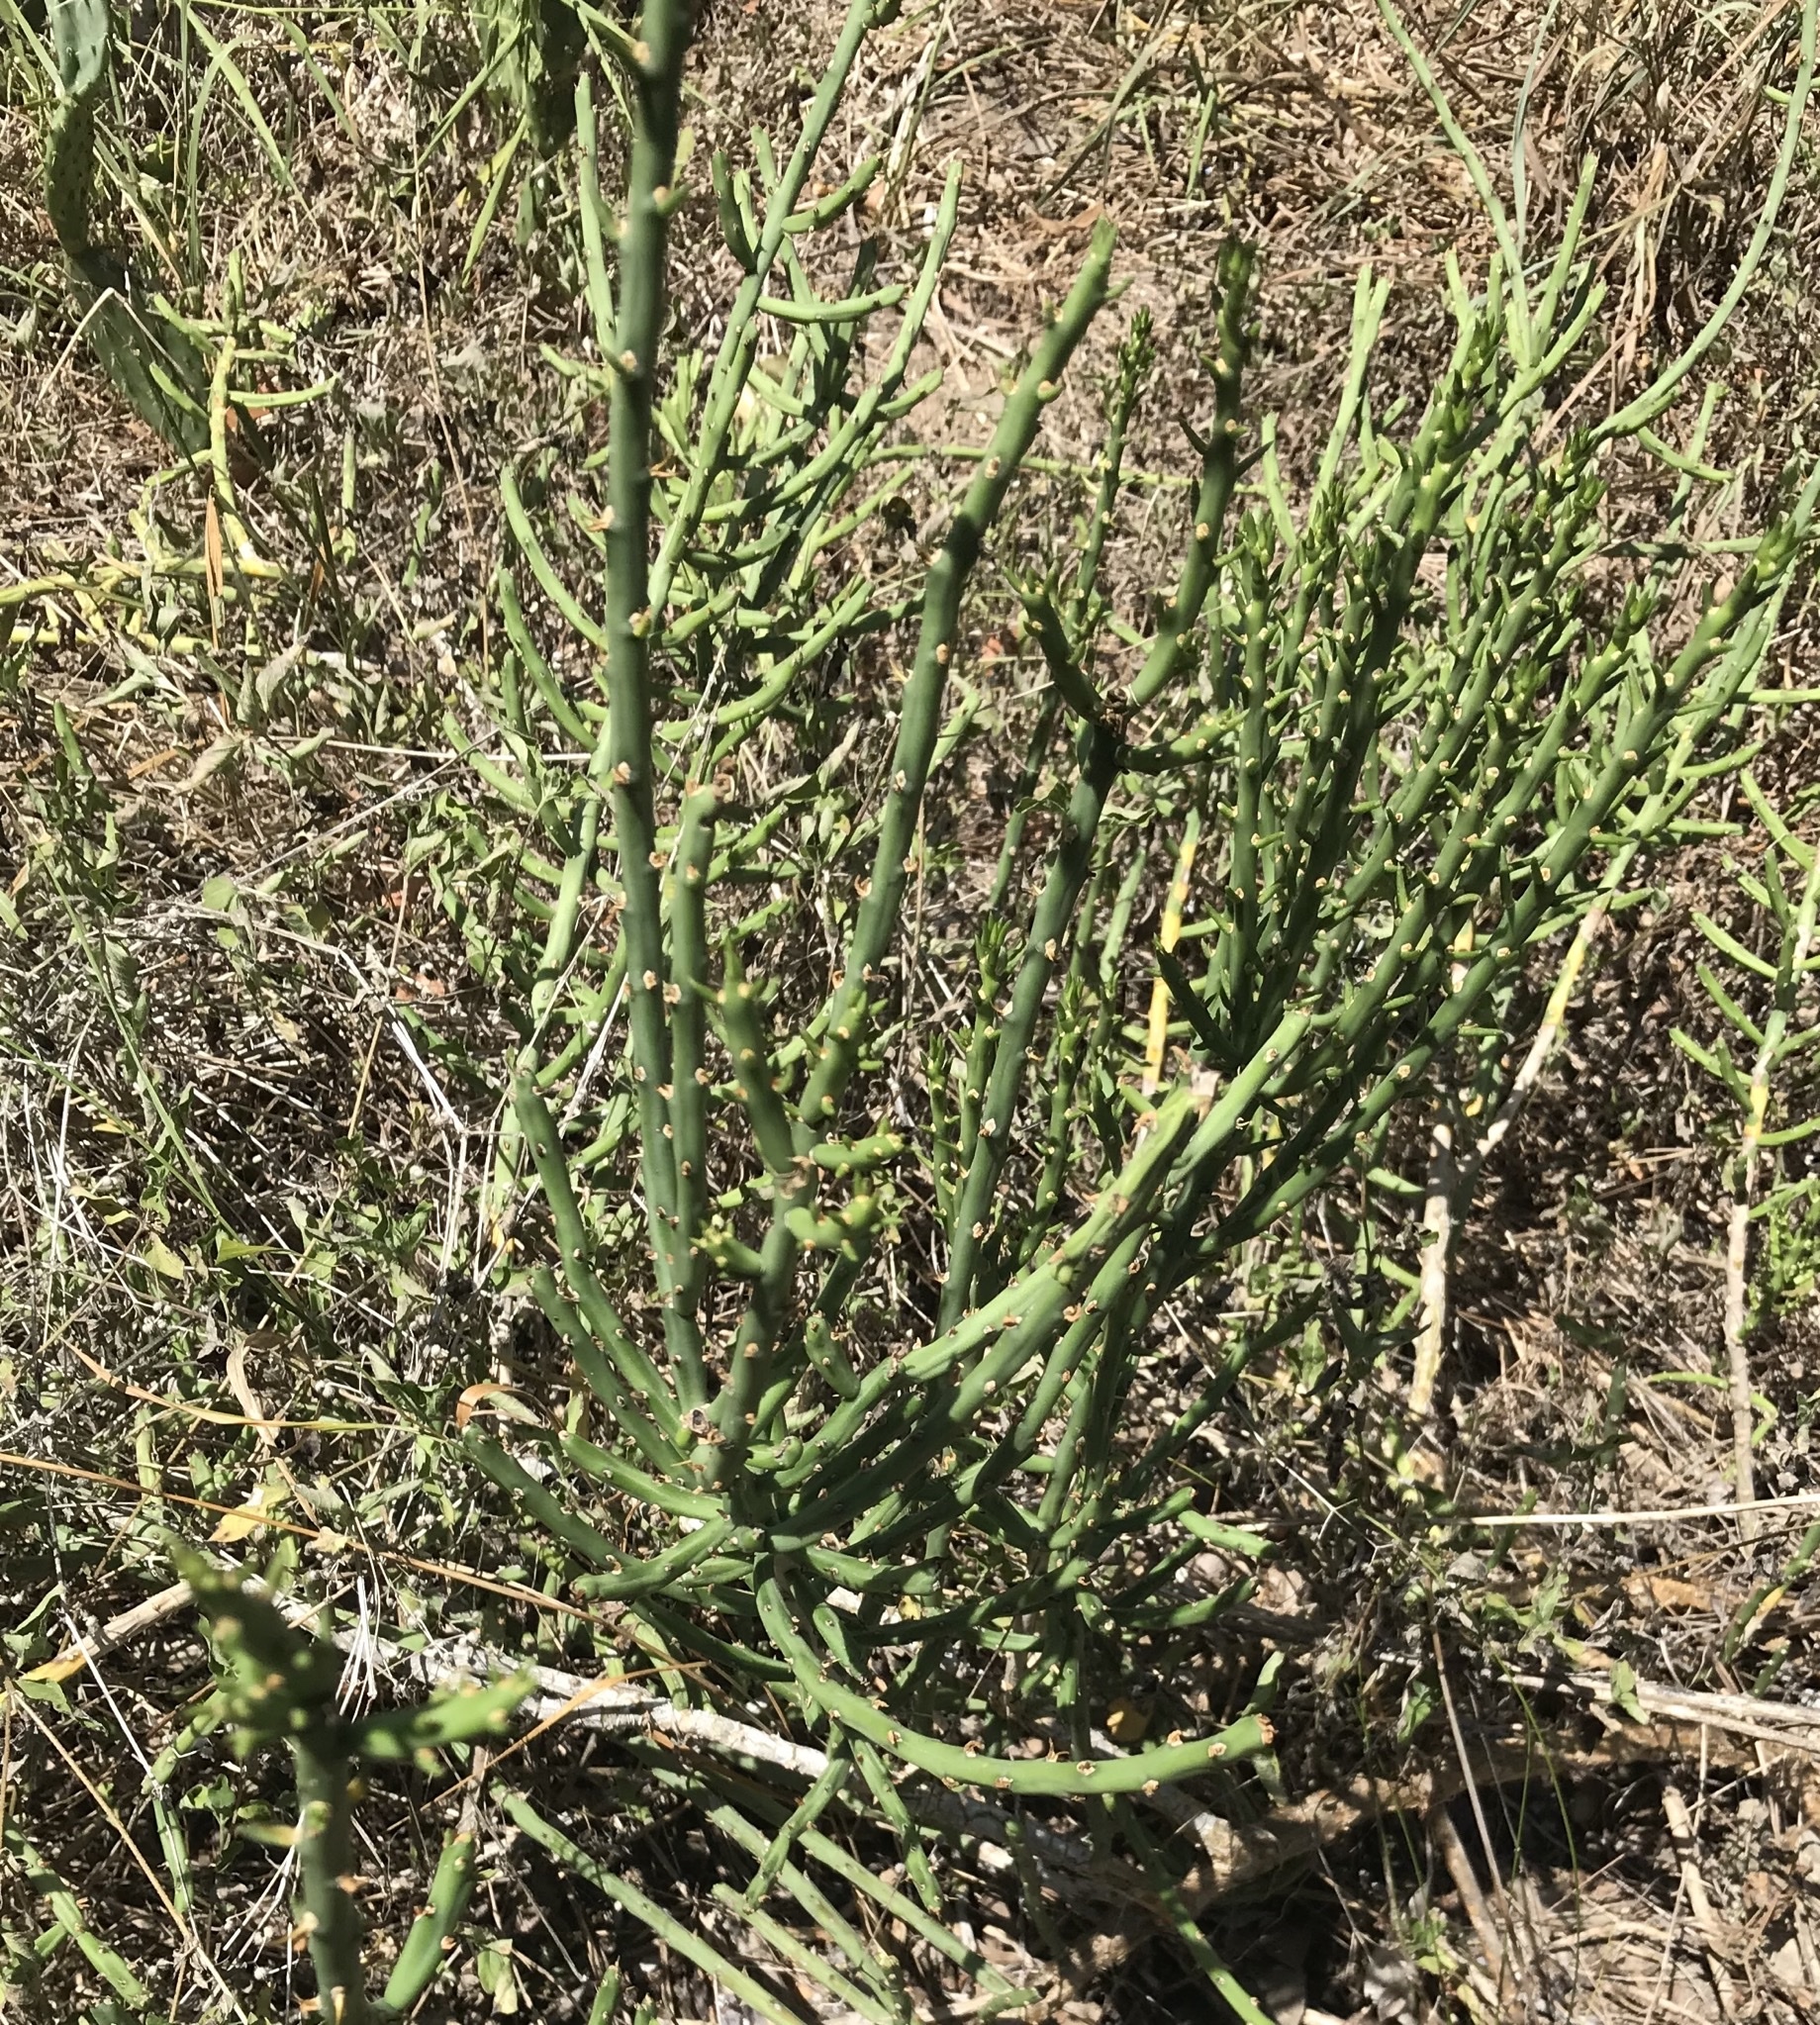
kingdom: Plantae
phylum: Tracheophyta
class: Magnoliopsida
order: Caryophyllales
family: Cactaceae
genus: Cylindropuntia
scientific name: Cylindropuntia leptocaulis
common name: Christmas cactus
